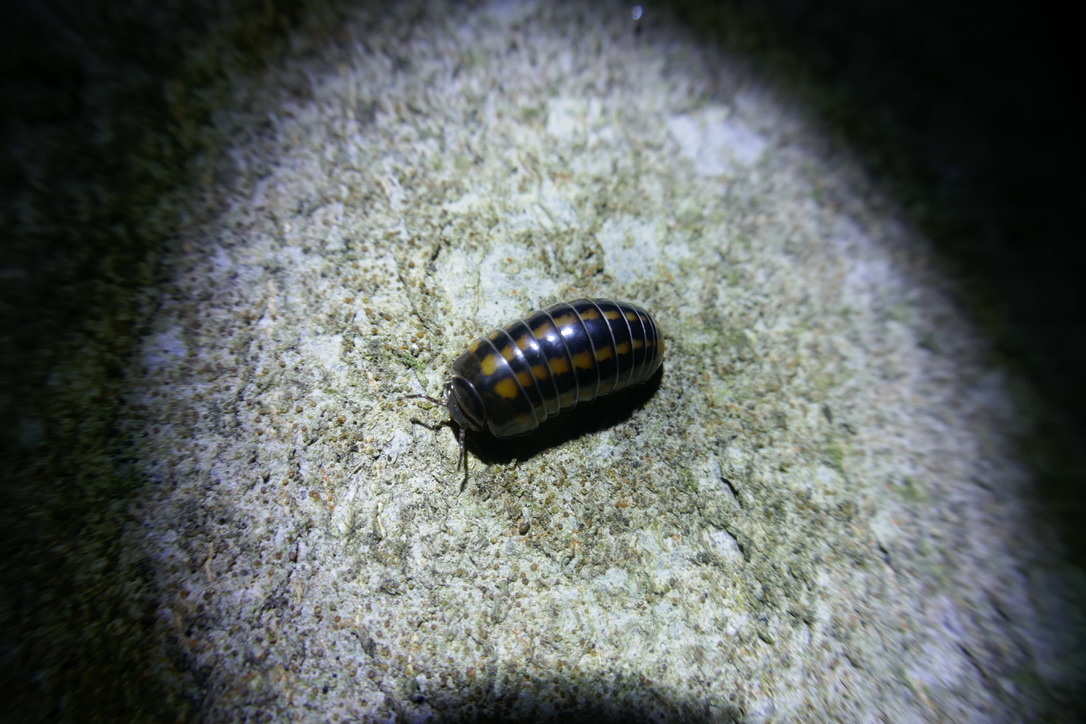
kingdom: Animalia
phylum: Arthropoda
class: Diplopoda
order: Glomerida
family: Glomeridae
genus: Glomeris
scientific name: Glomeris connexa
